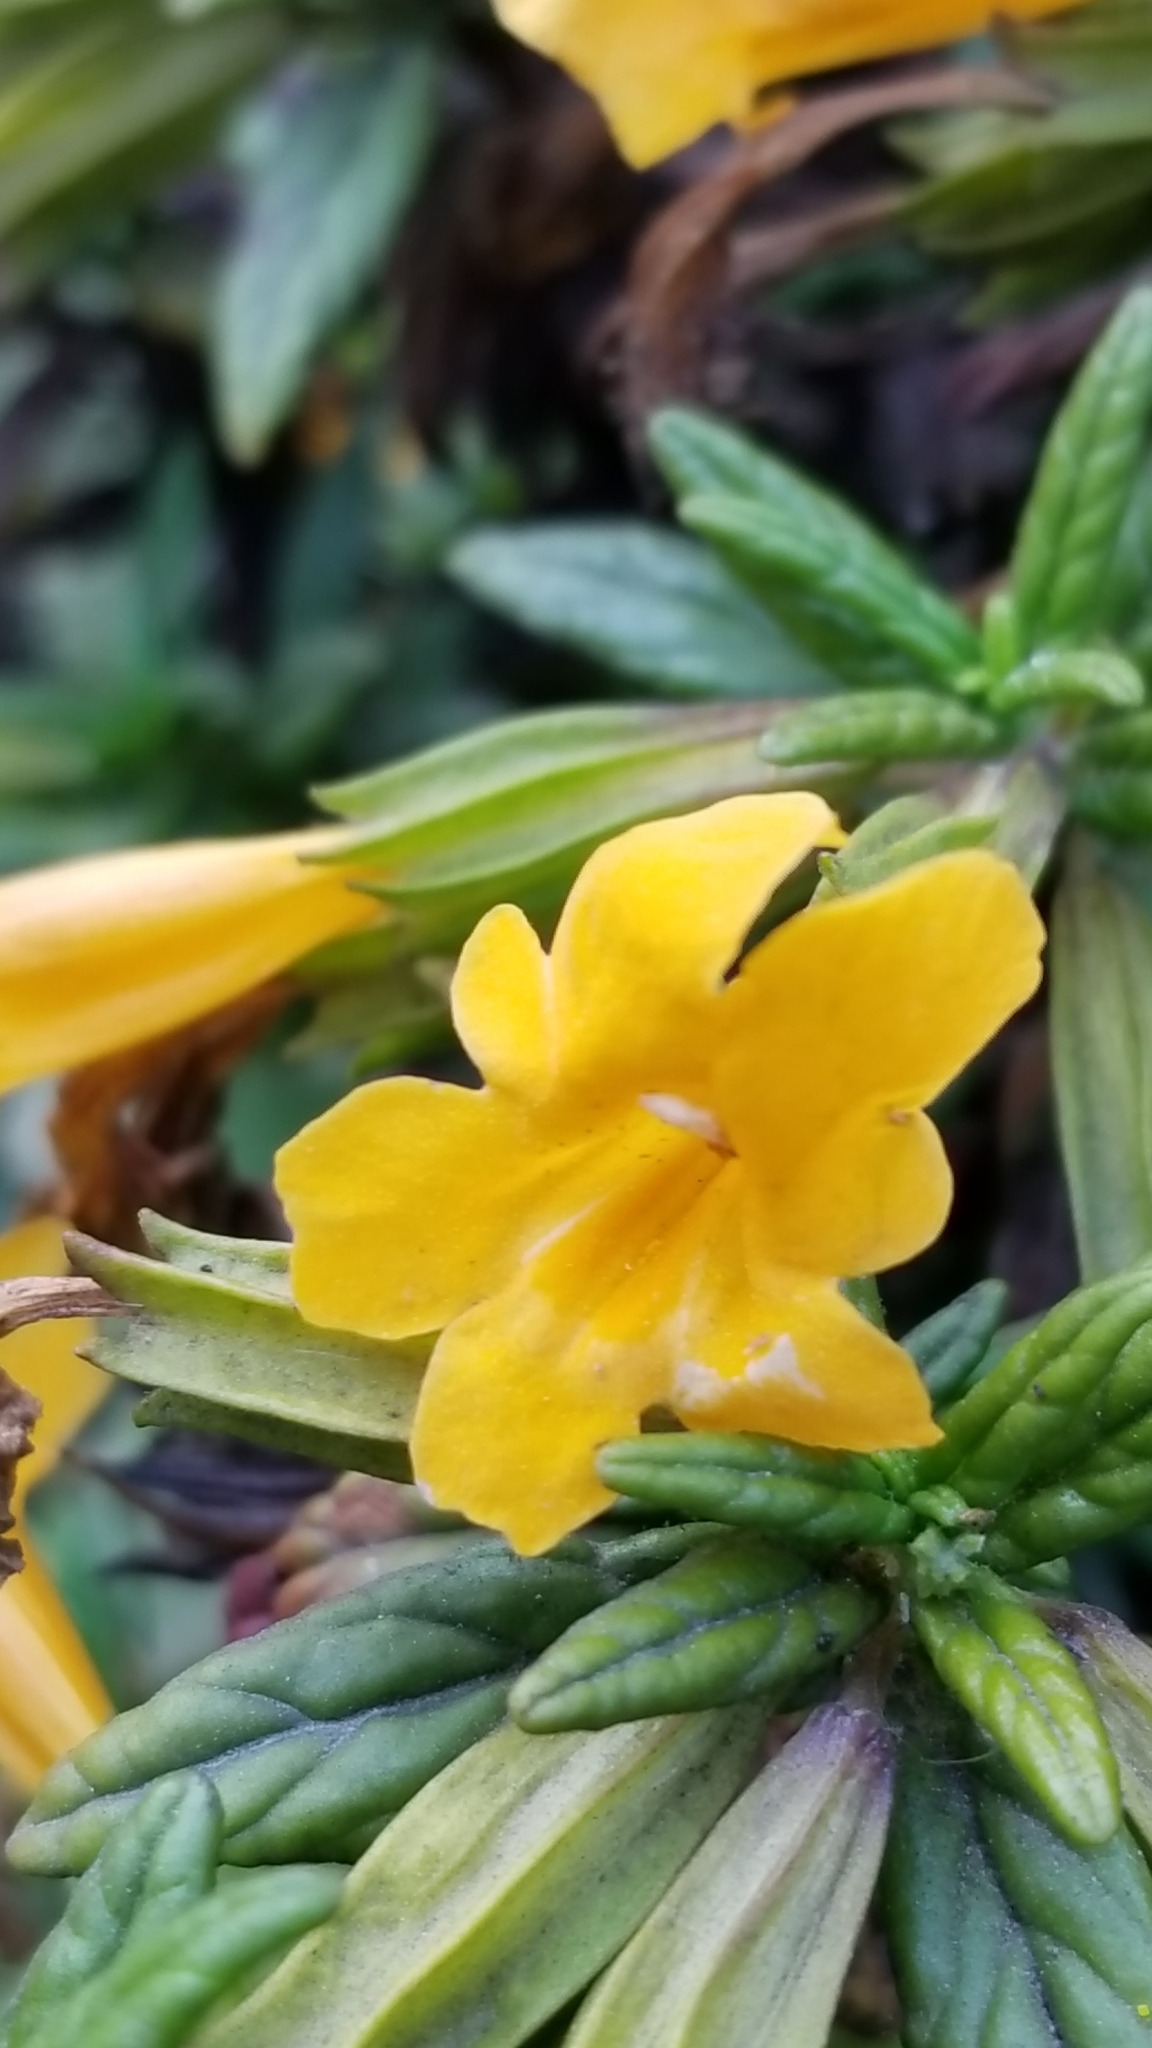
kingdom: Plantae
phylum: Tracheophyta
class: Magnoliopsida
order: Lamiales
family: Phrymaceae
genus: Diplacus
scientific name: Diplacus aurantiacus
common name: Bush monkey-flower
